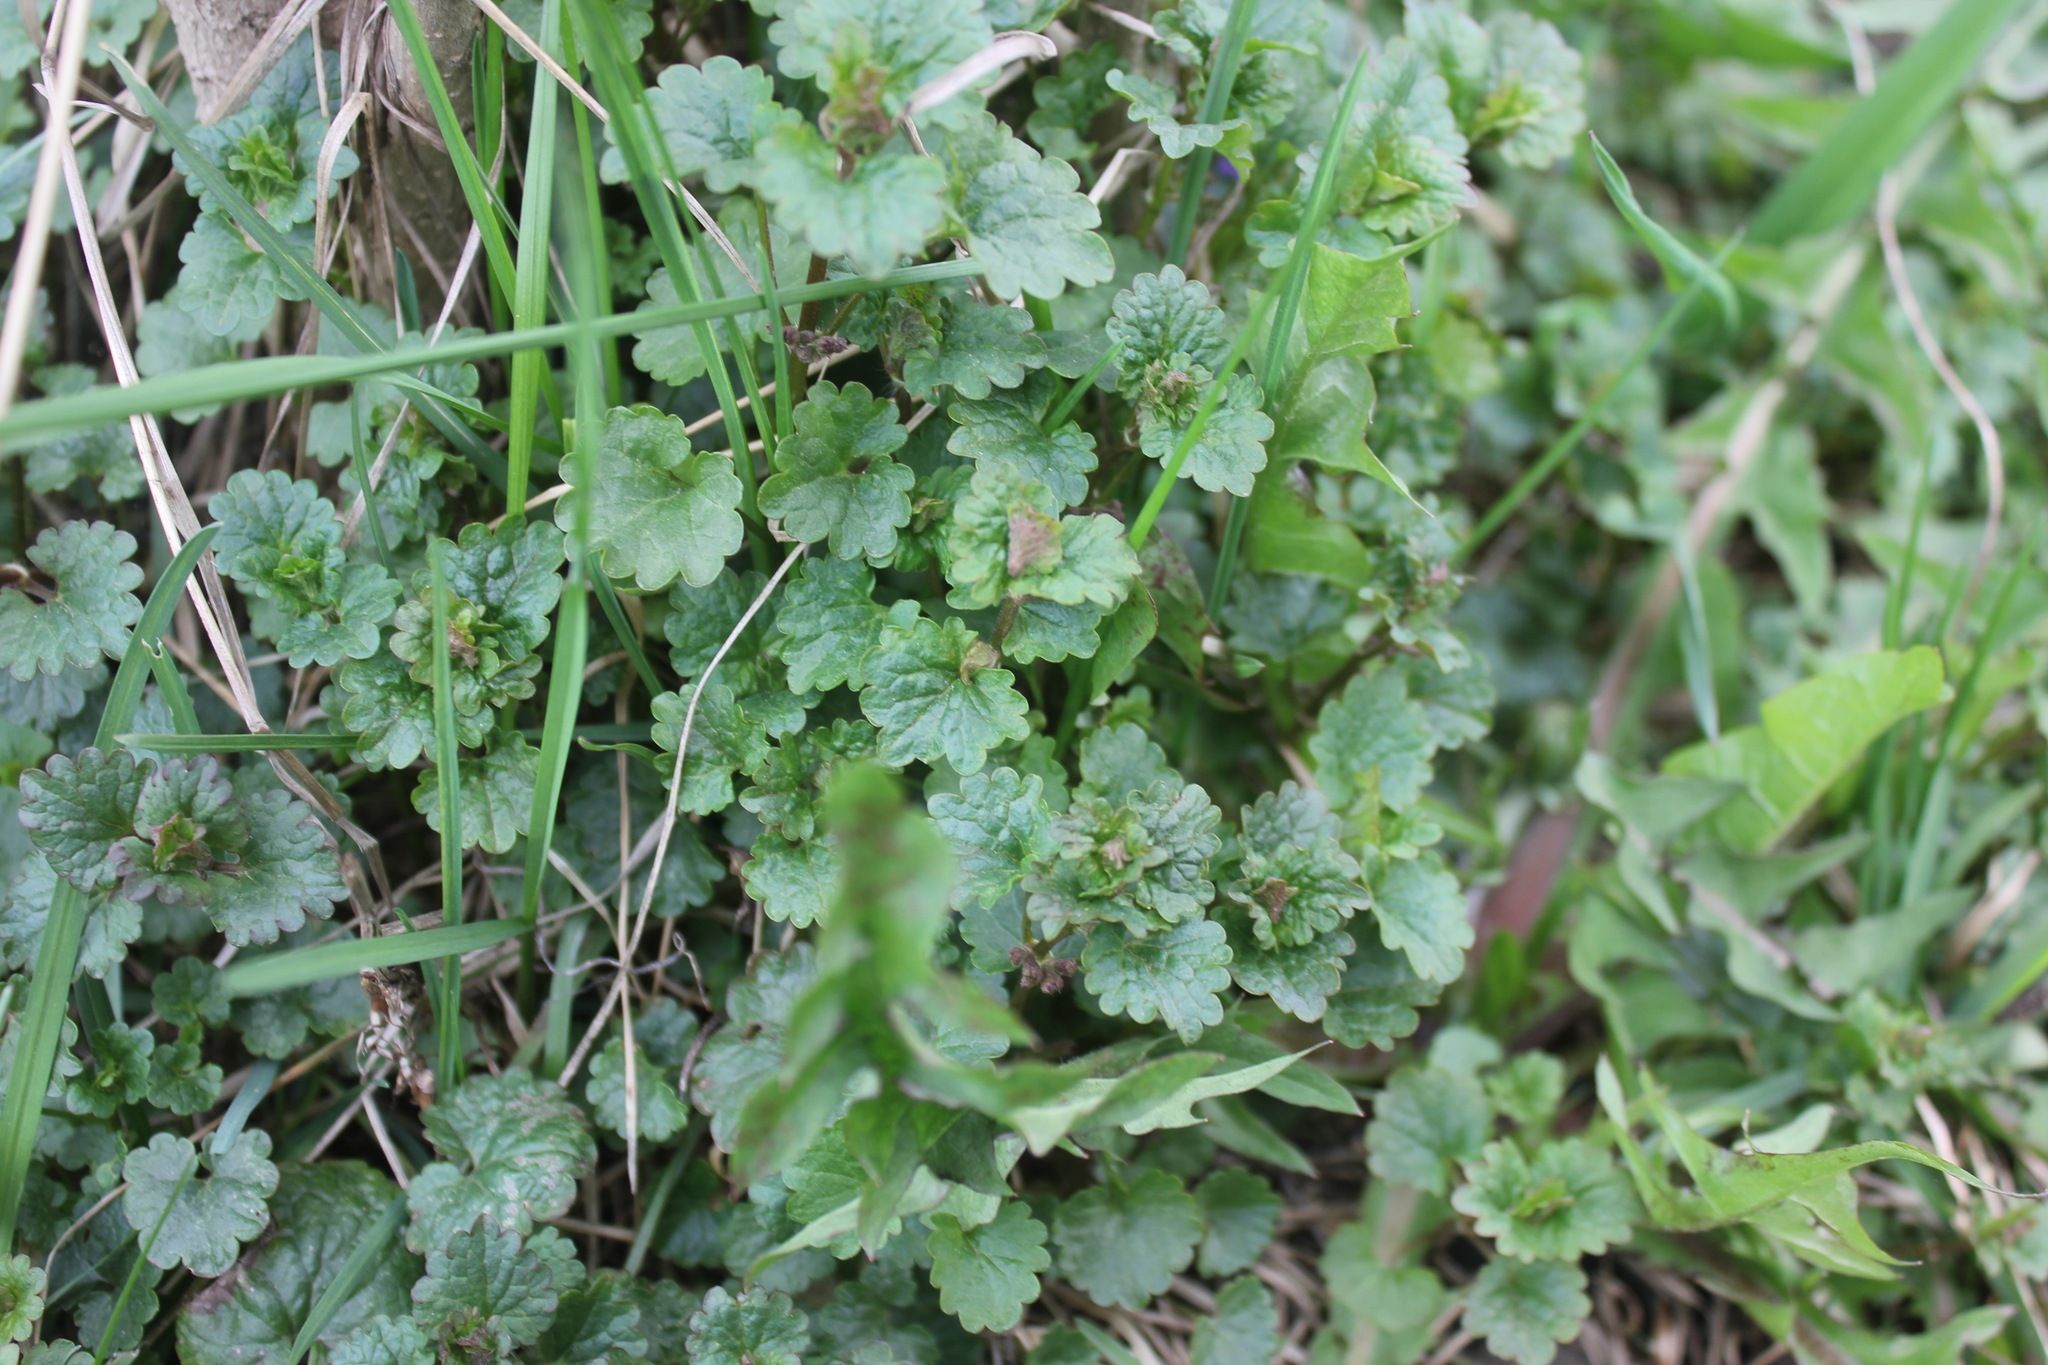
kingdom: Plantae
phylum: Tracheophyta
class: Magnoliopsida
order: Lamiales
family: Lamiaceae
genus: Glechoma
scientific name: Glechoma hederacea
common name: Ground ivy
